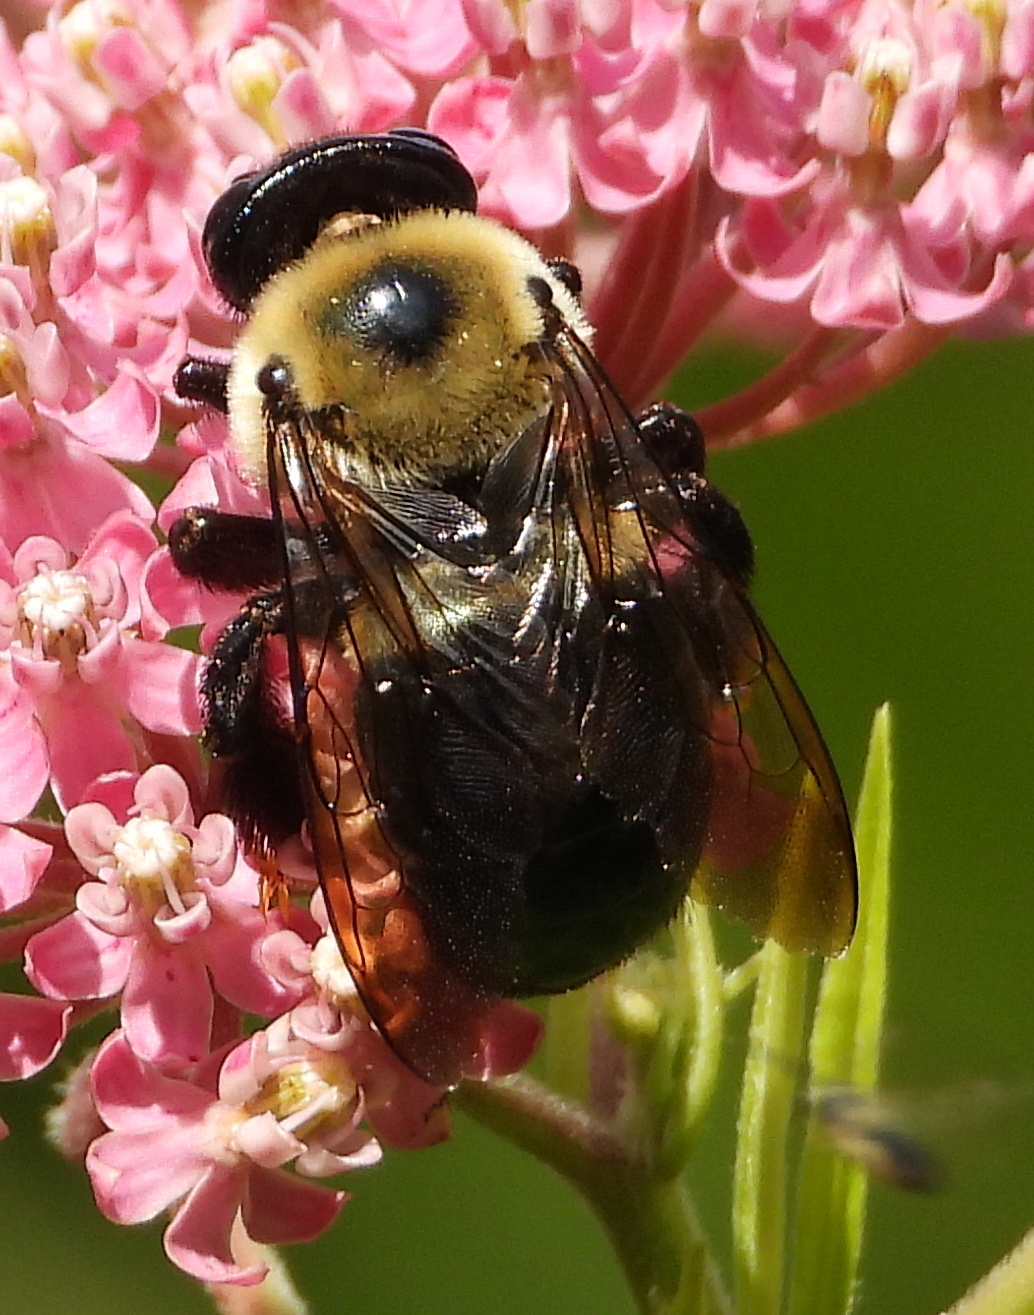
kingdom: Animalia
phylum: Arthropoda
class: Insecta
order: Hymenoptera
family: Apidae
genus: Xylocopa
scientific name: Xylocopa virginica
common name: Carpenter bee
